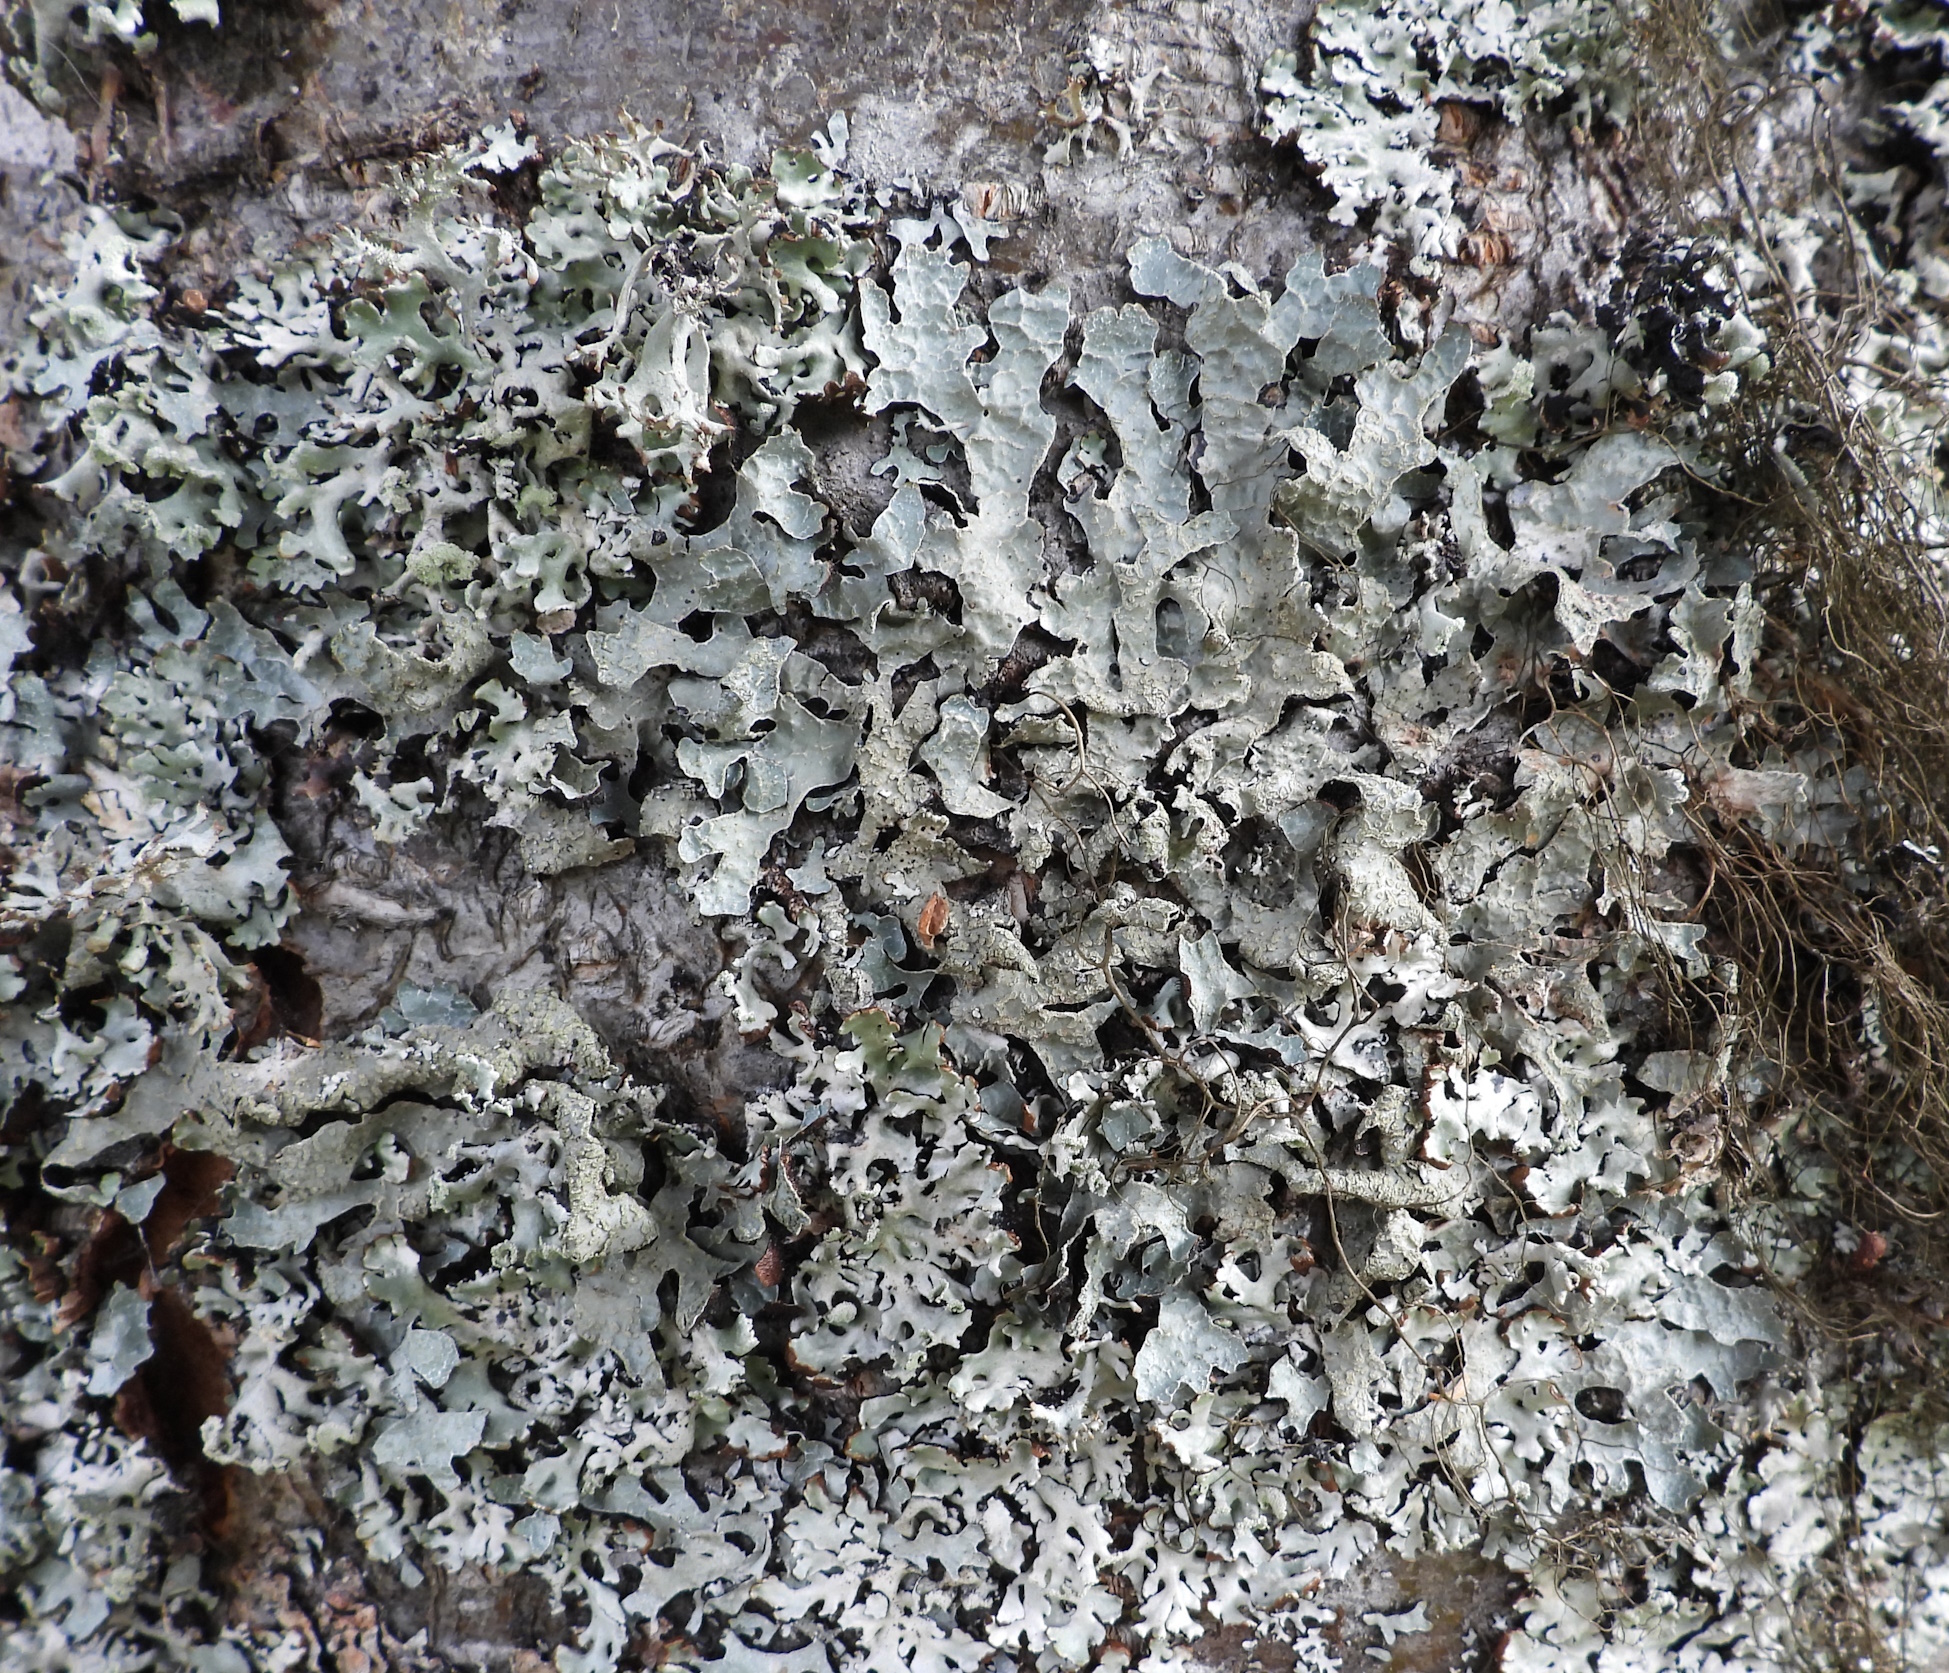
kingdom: Fungi
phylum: Ascomycota
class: Lecanoromycetes
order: Lecanorales
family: Parmeliaceae
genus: Parmelia
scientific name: Parmelia sulcata
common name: Netted shield lichen
